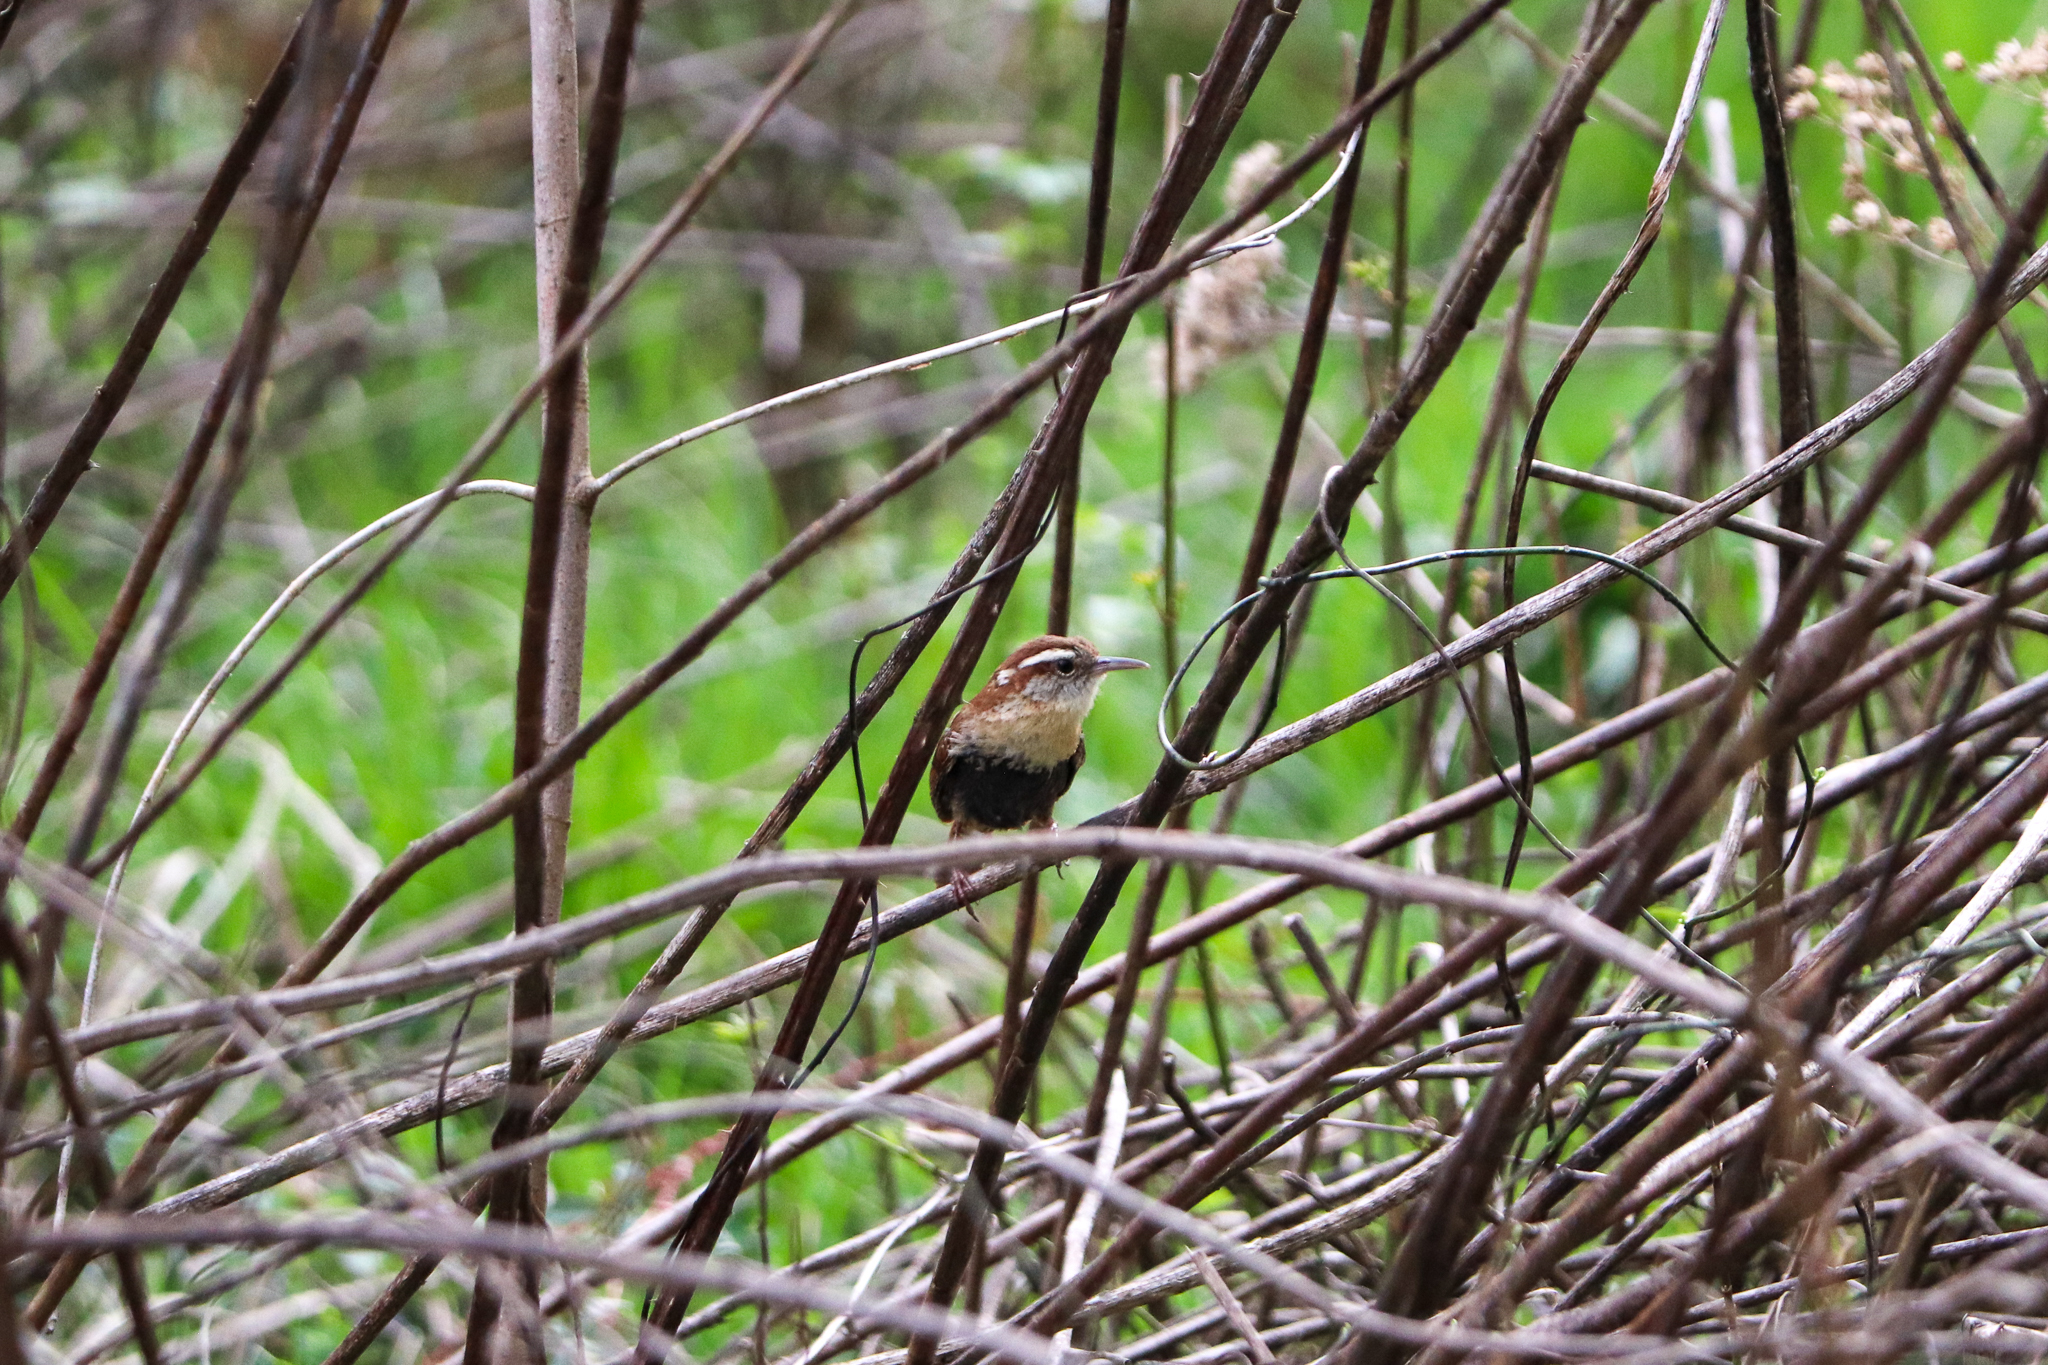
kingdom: Animalia
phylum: Chordata
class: Aves
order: Passeriformes
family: Troglodytidae
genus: Thryothorus
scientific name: Thryothorus ludovicianus
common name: Carolina wren
